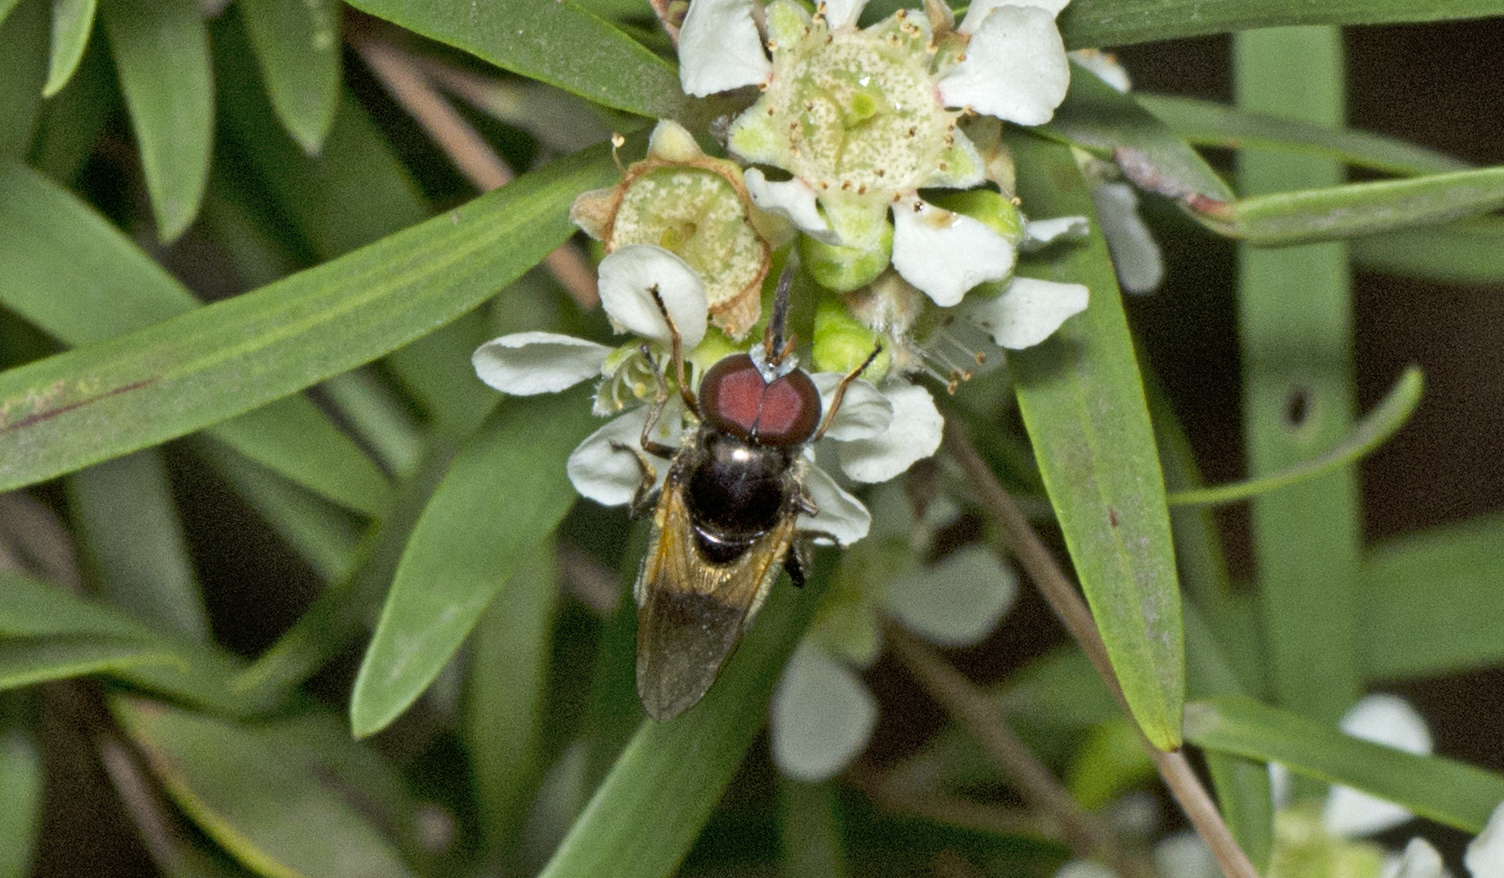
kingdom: Animalia
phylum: Arthropoda
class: Insecta
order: Diptera
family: Syrphidae
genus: Psilota
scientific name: Psilota bicolor
